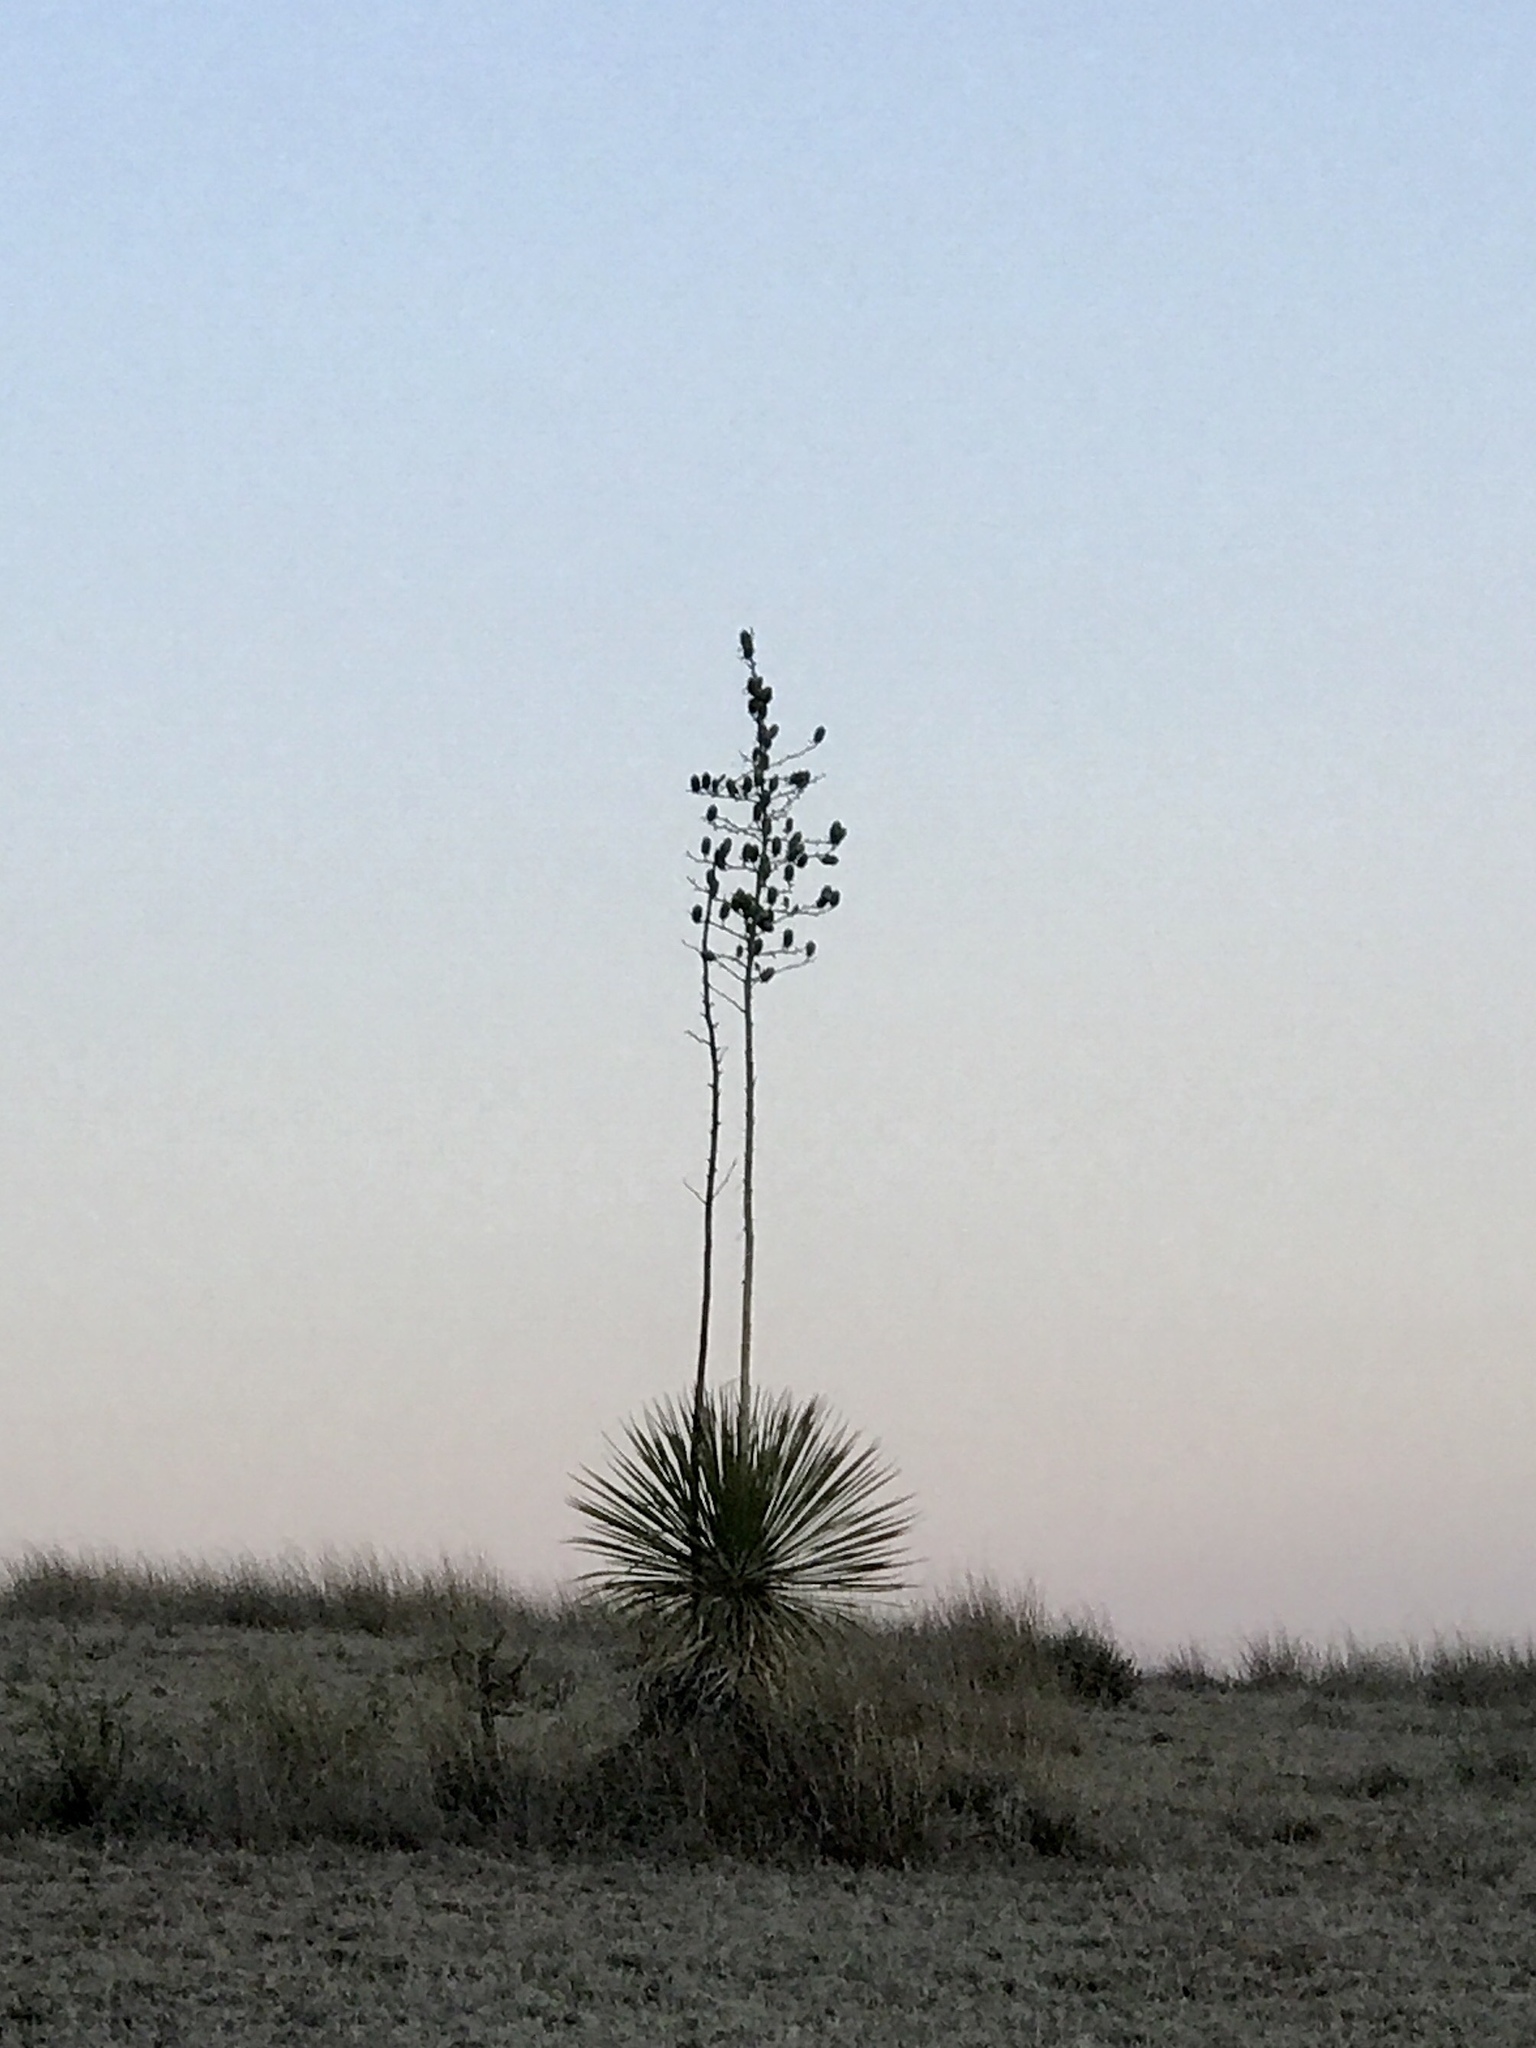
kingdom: Plantae
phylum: Tracheophyta
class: Liliopsida
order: Asparagales
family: Asparagaceae
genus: Yucca
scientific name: Yucca elata
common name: Palmella
